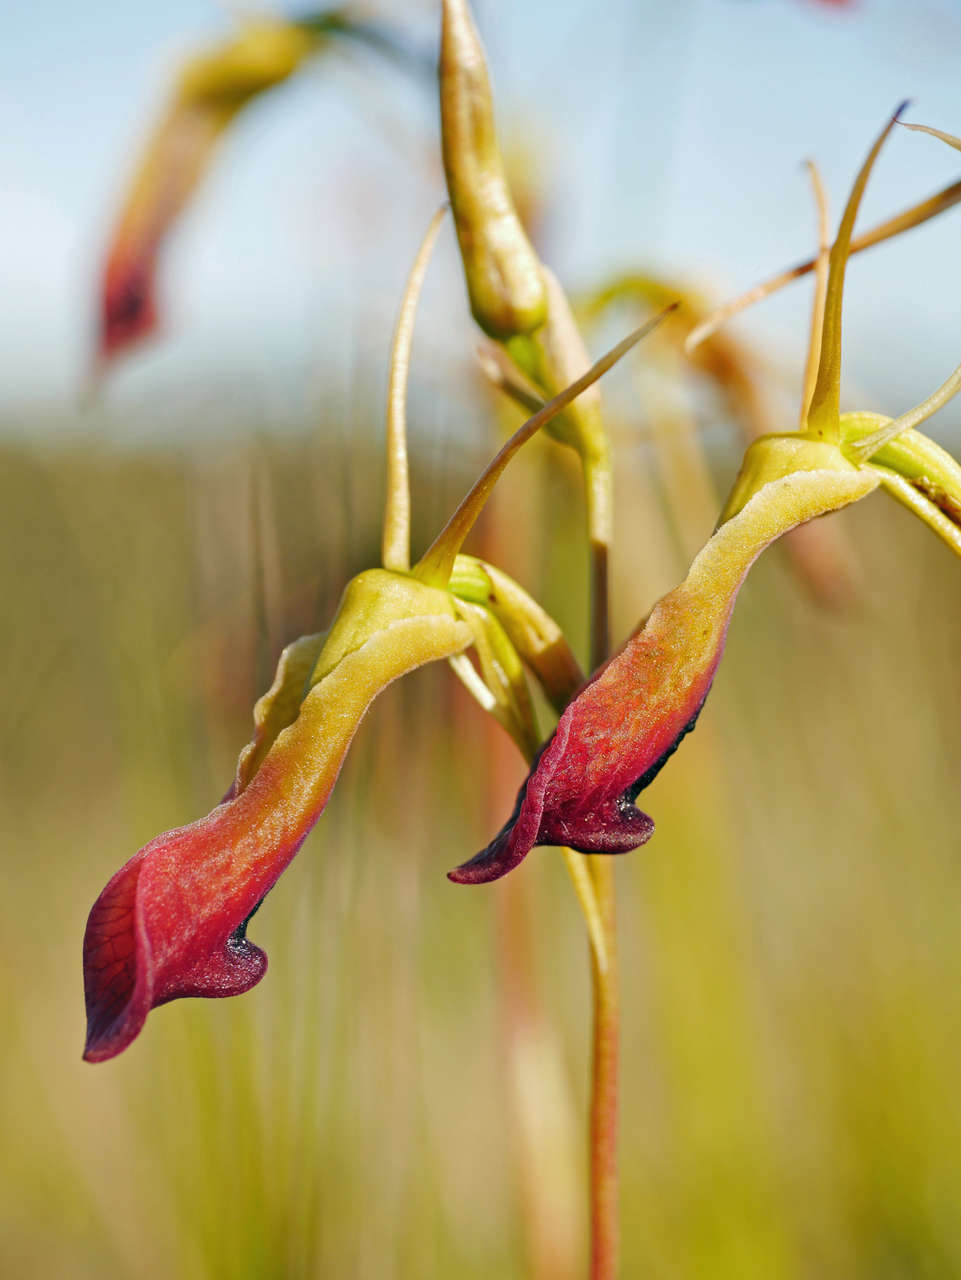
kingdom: Plantae
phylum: Tracheophyta
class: Liliopsida
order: Asparagales
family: Orchidaceae
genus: Cryptostylis
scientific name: Cryptostylis subulata
